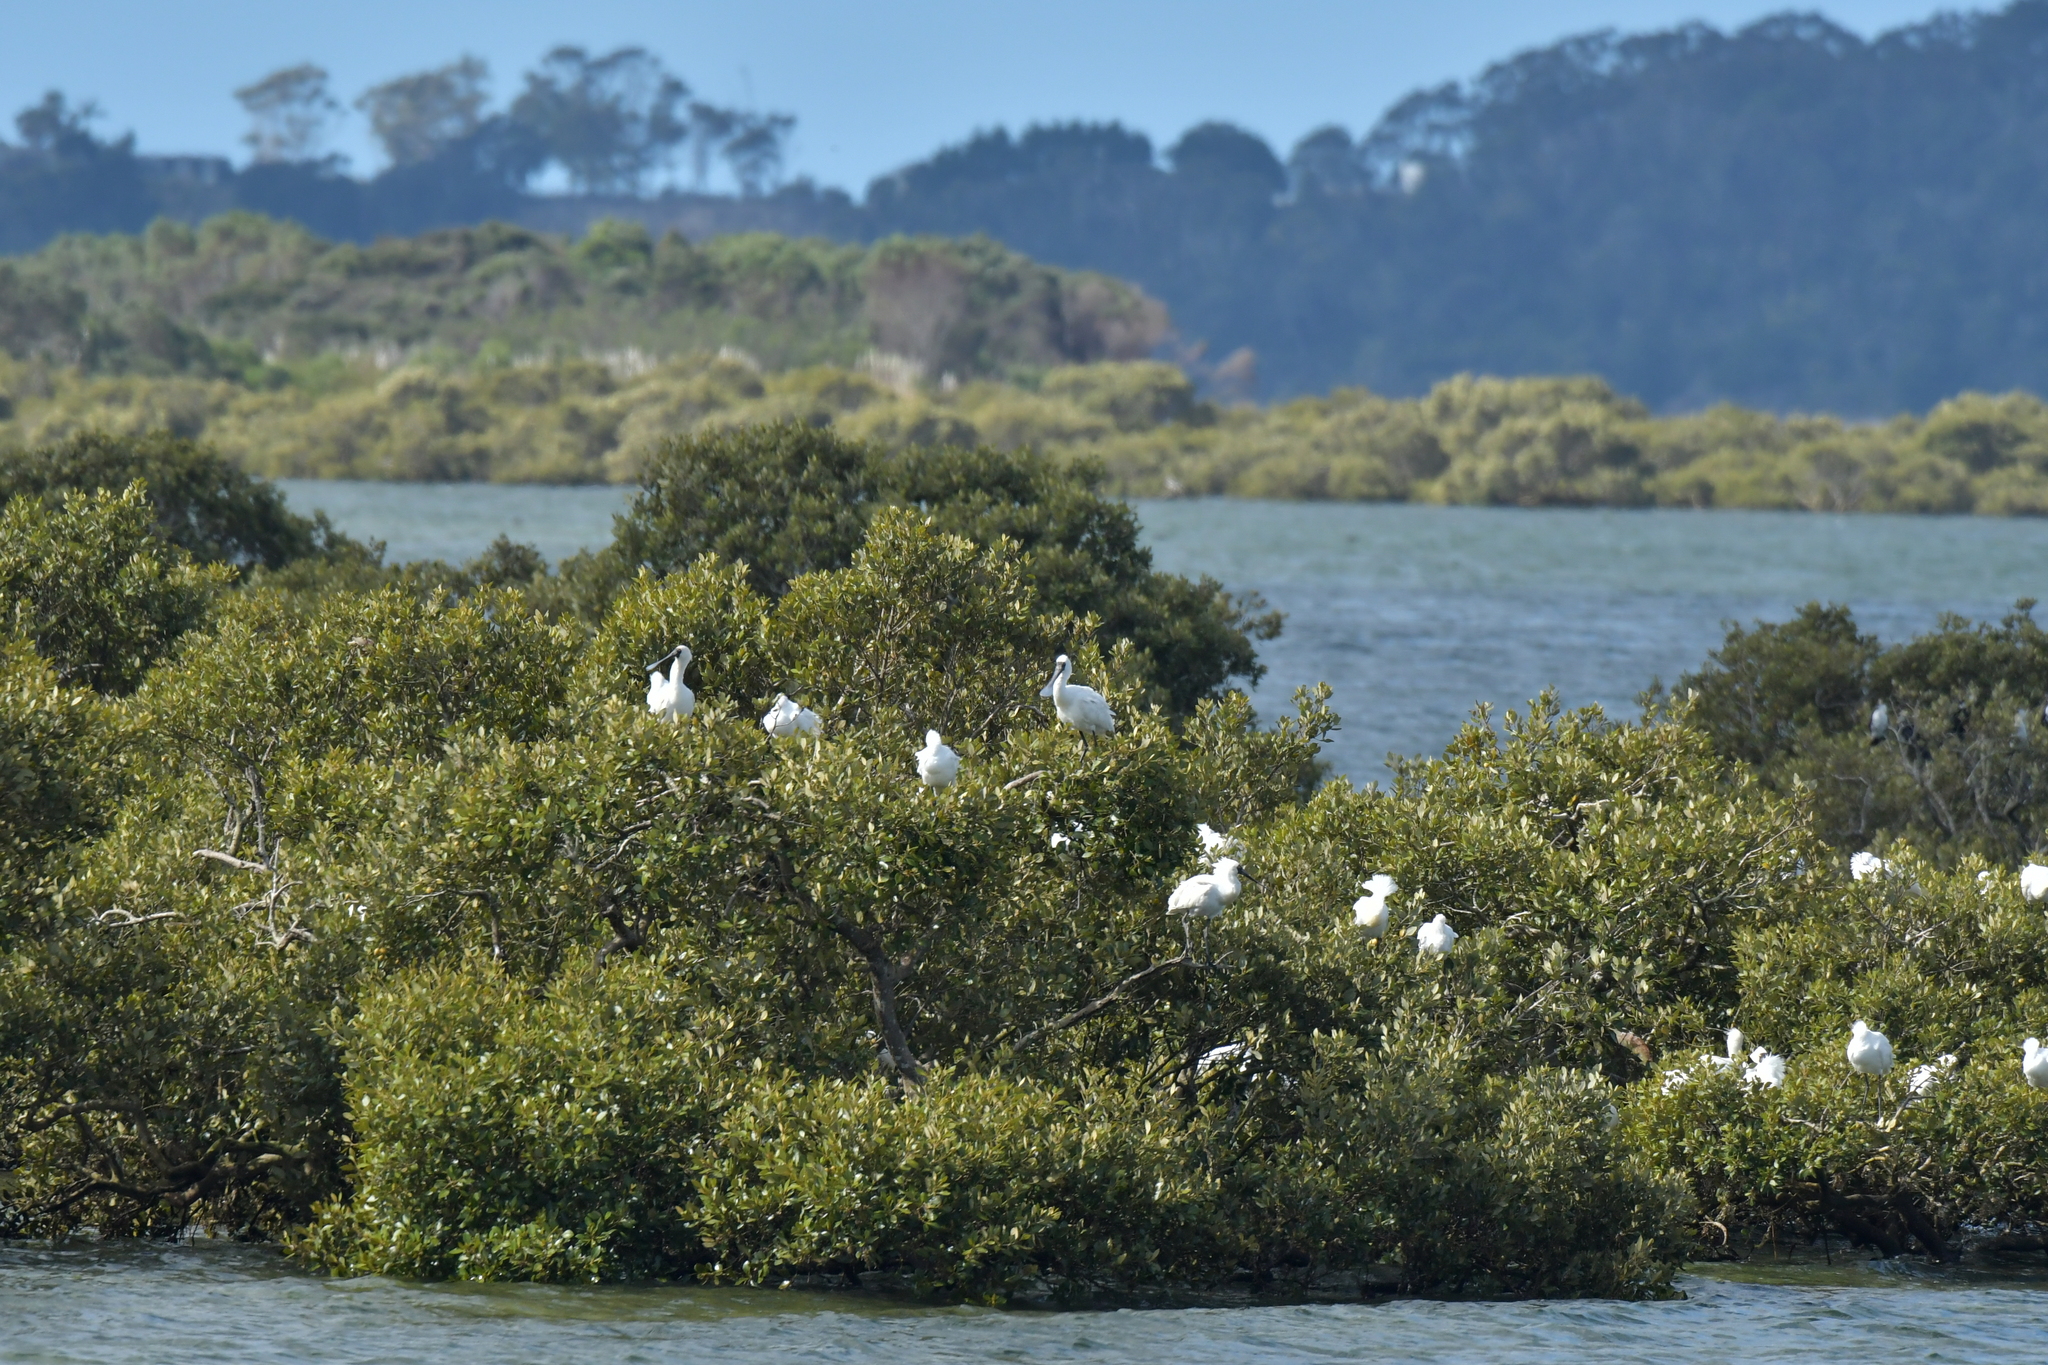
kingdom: Animalia
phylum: Chordata
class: Aves
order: Pelecaniformes
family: Threskiornithidae
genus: Platalea
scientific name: Platalea regia
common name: Royal spoonbill
